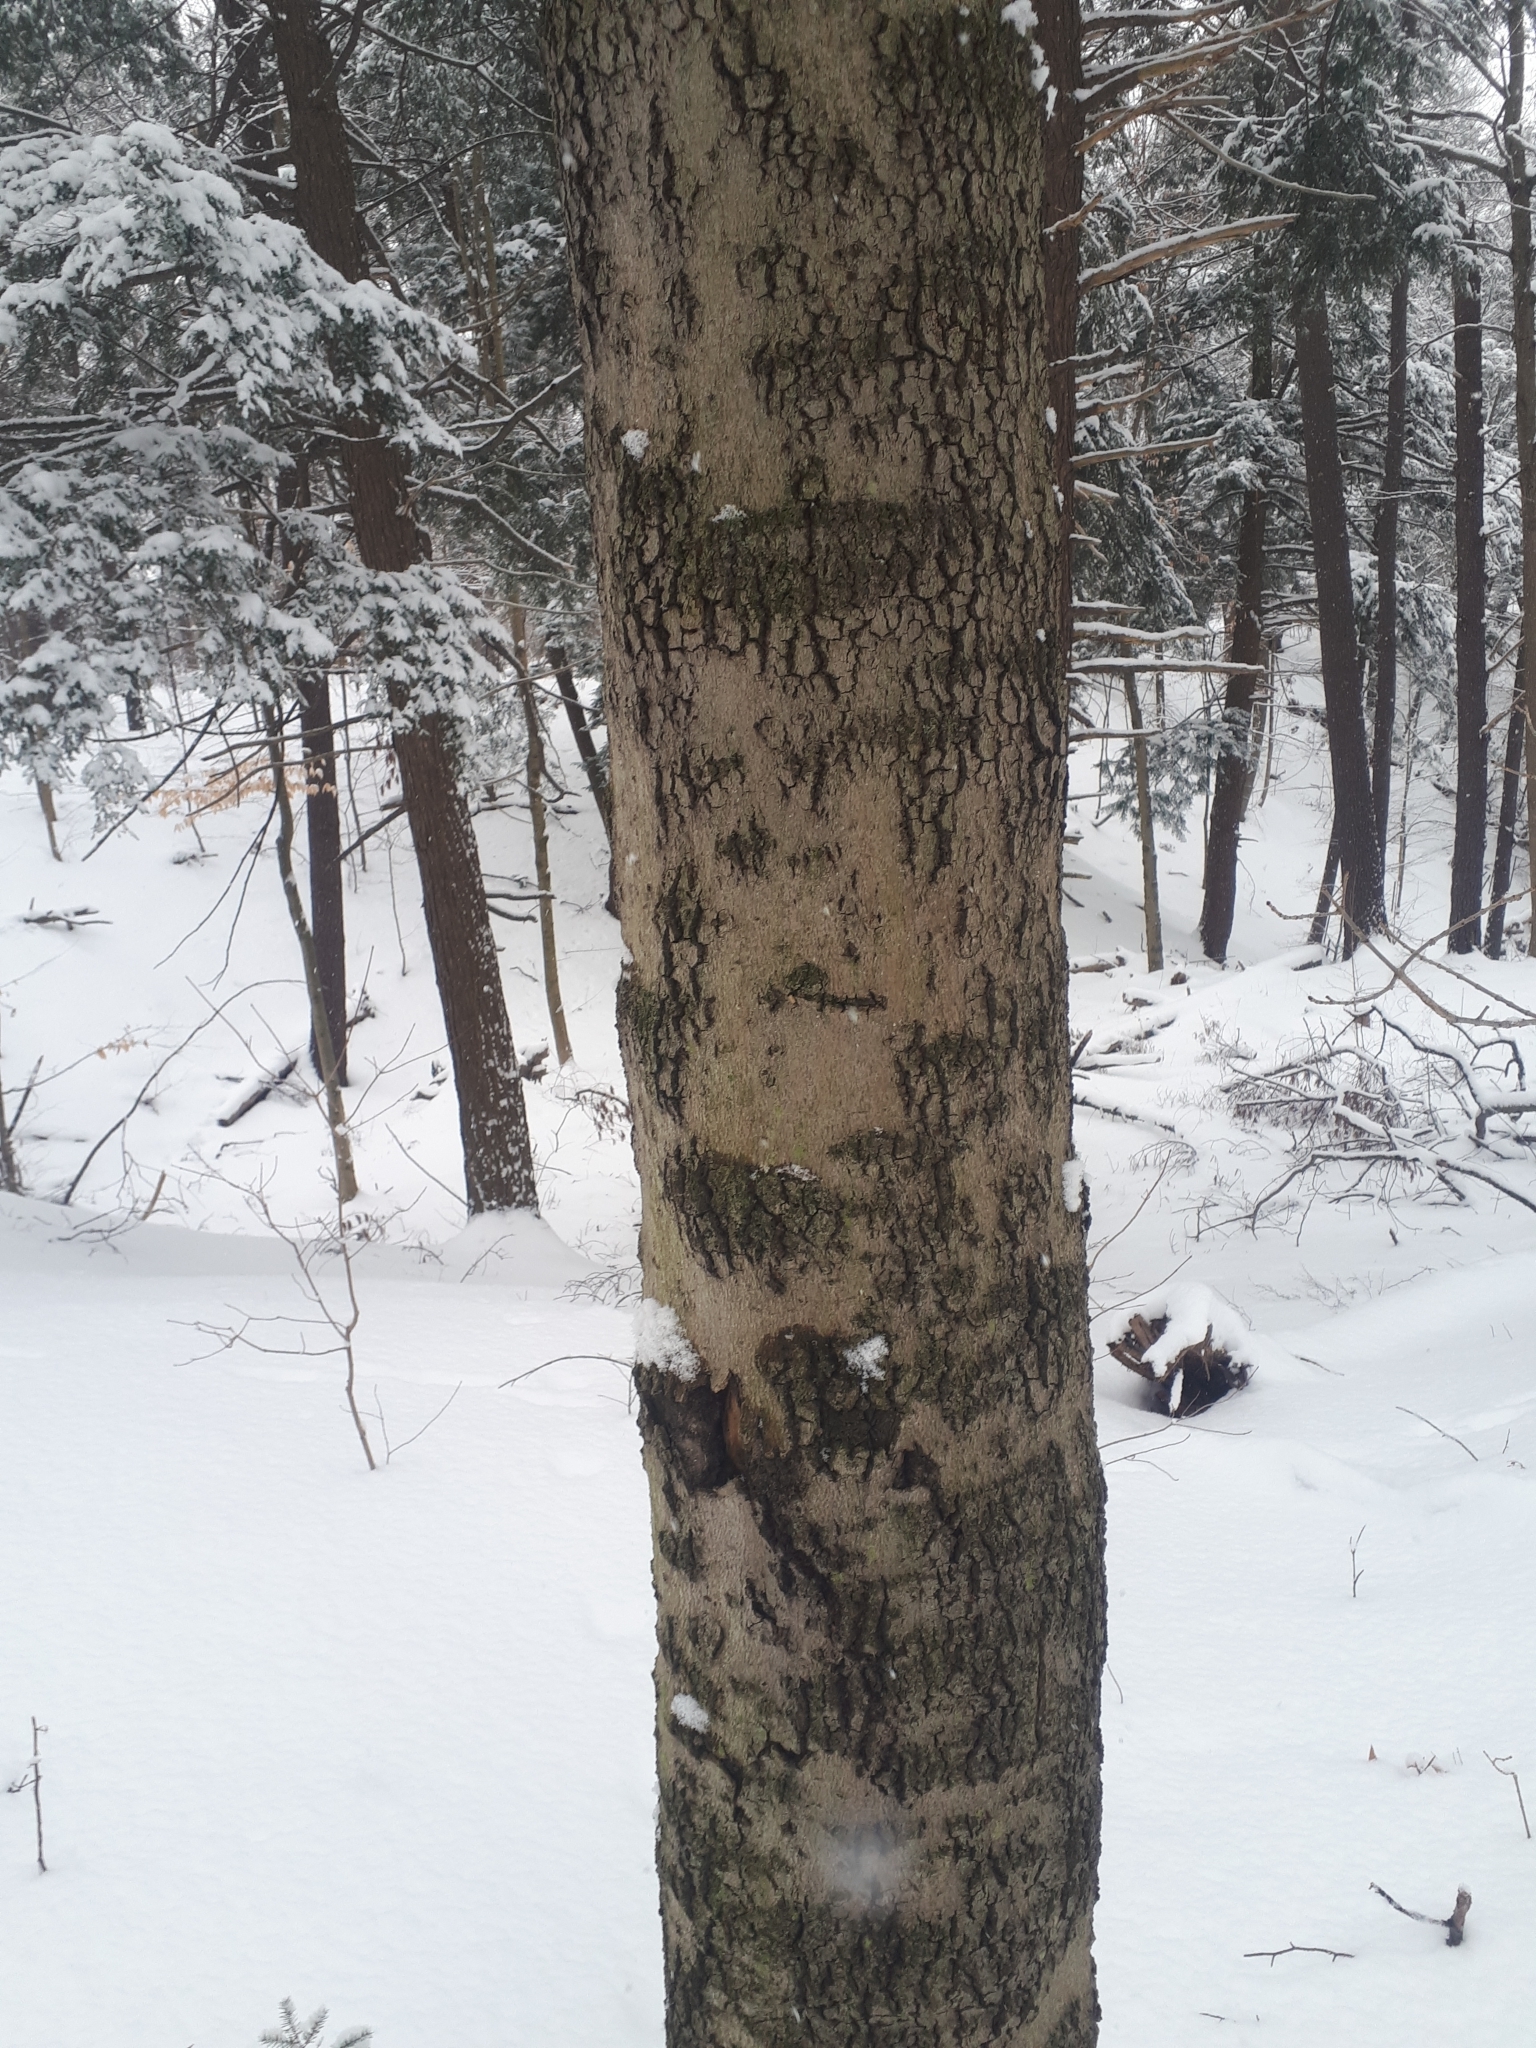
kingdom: Plantae
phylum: Tracheophyta
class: Magnoliopsida
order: Fagales
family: Fagaceae
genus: Fagus
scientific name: Fagus grandifolia
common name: American beech
